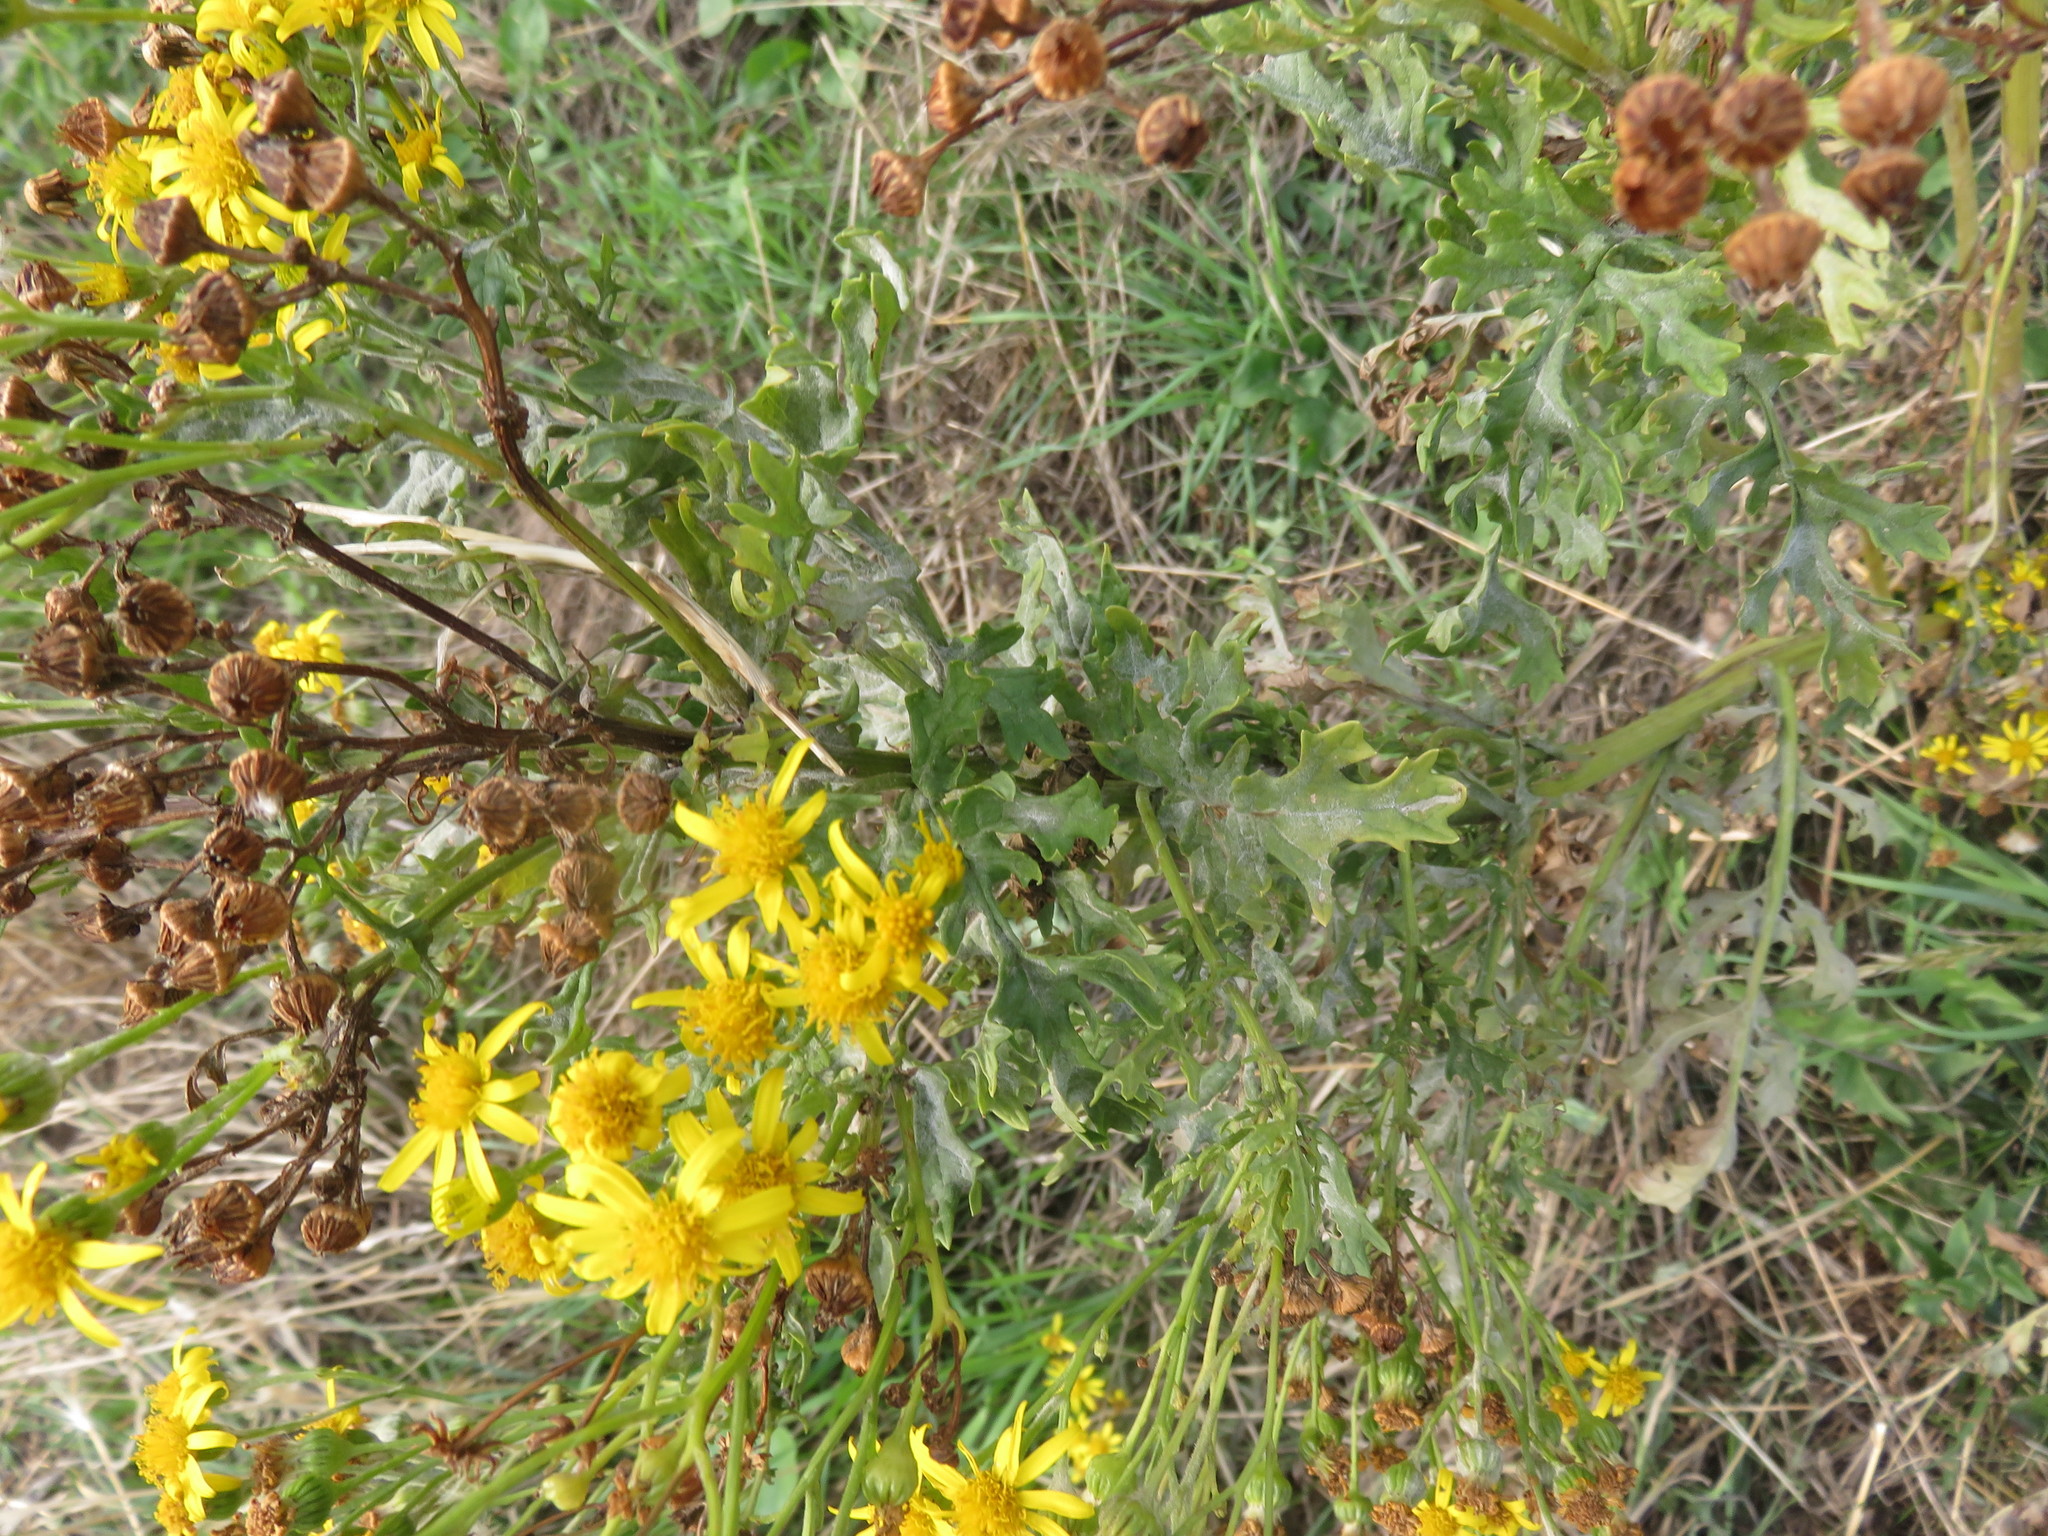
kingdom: Plantae
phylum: Tracheophyta
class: Magnoliopsida
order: Asterales
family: Asteraceae
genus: Jacobaea
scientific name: Jacobaea vulgaris
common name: Stinking willie
